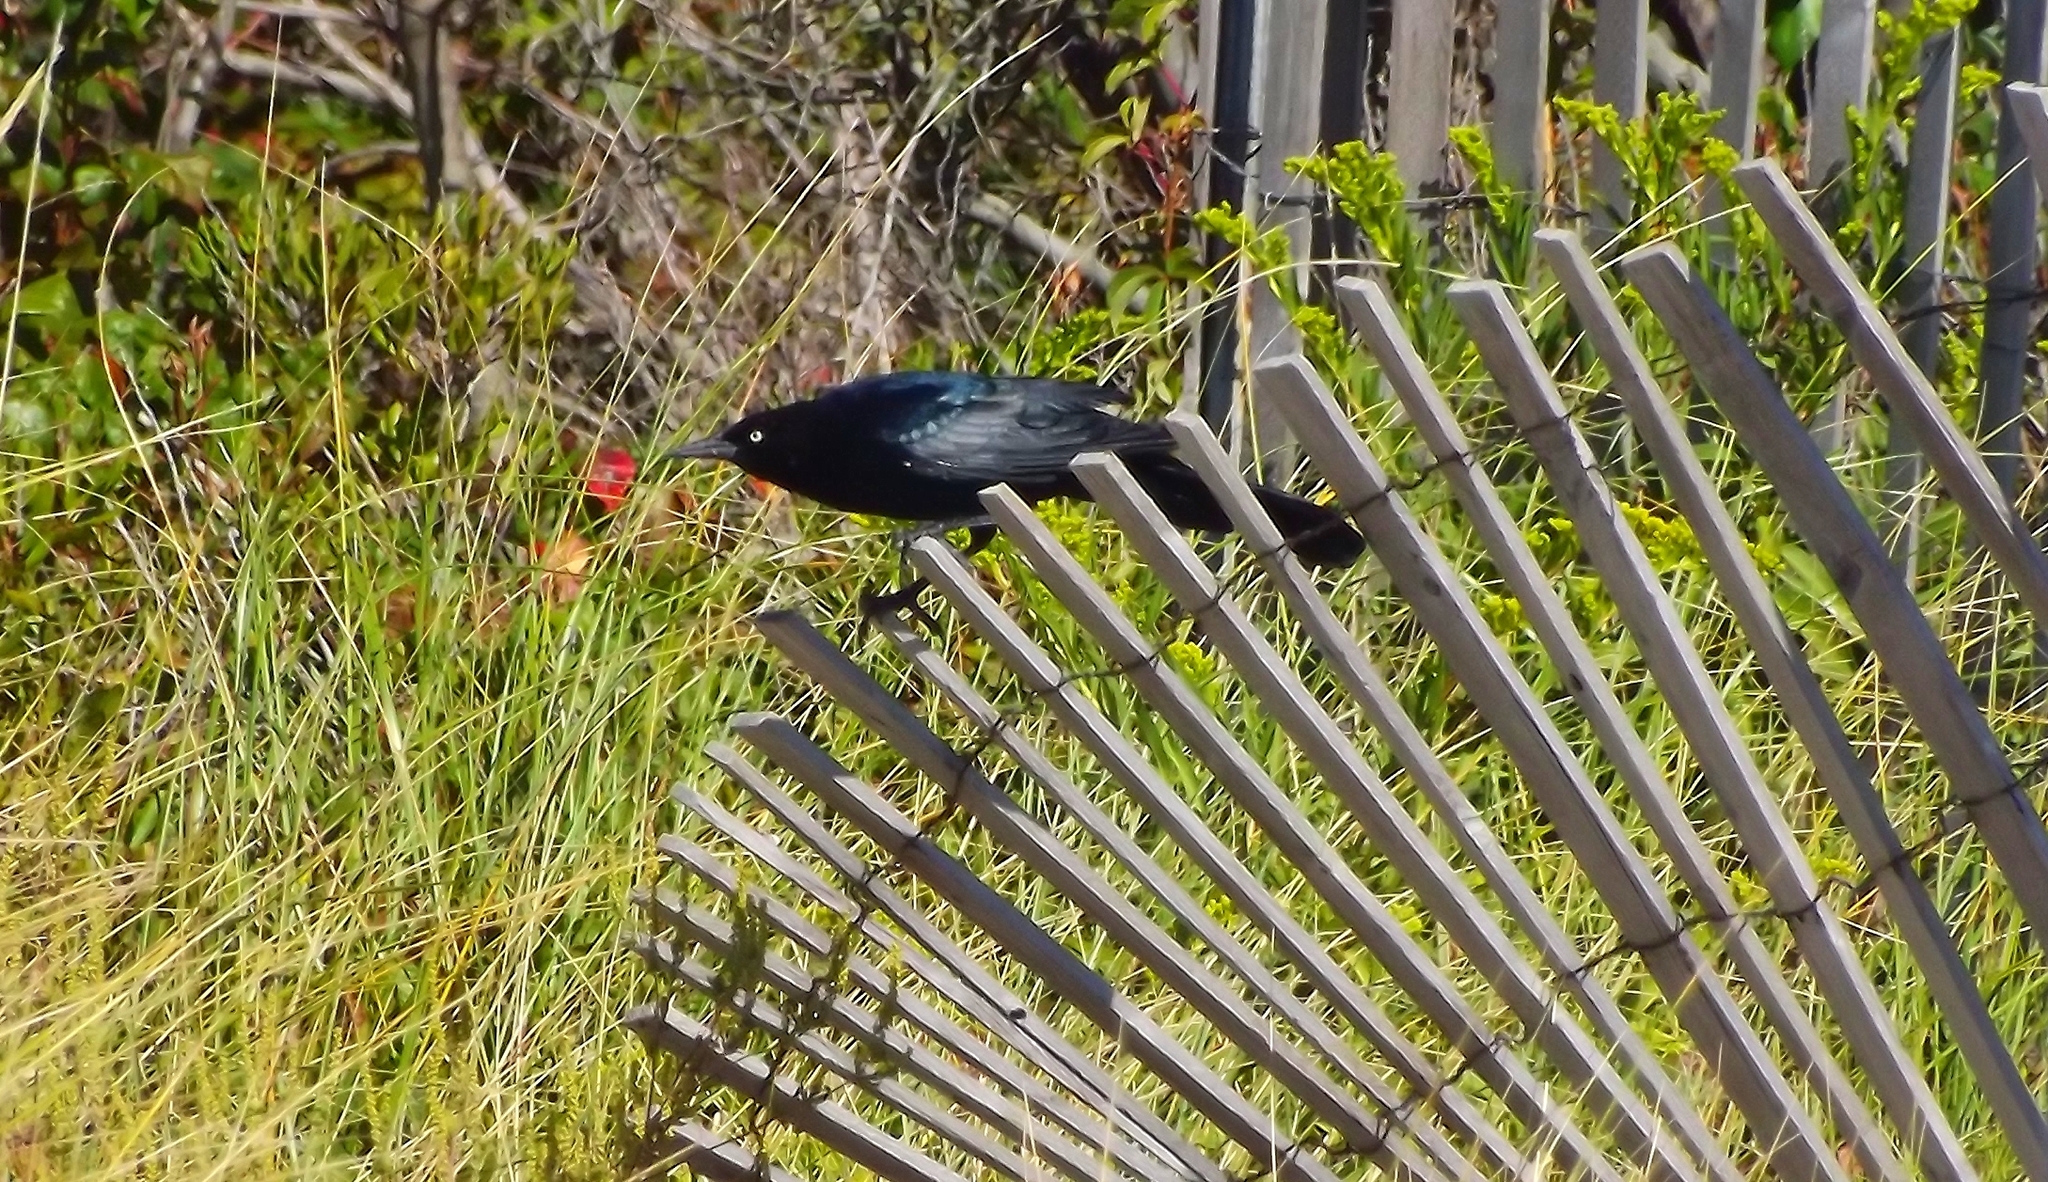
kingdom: Animalia
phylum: Chordata
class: Aves
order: Passeriformes
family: Icteridae
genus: Quiscalus
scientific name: Quiscalus major
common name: Boat-tailed grackle
